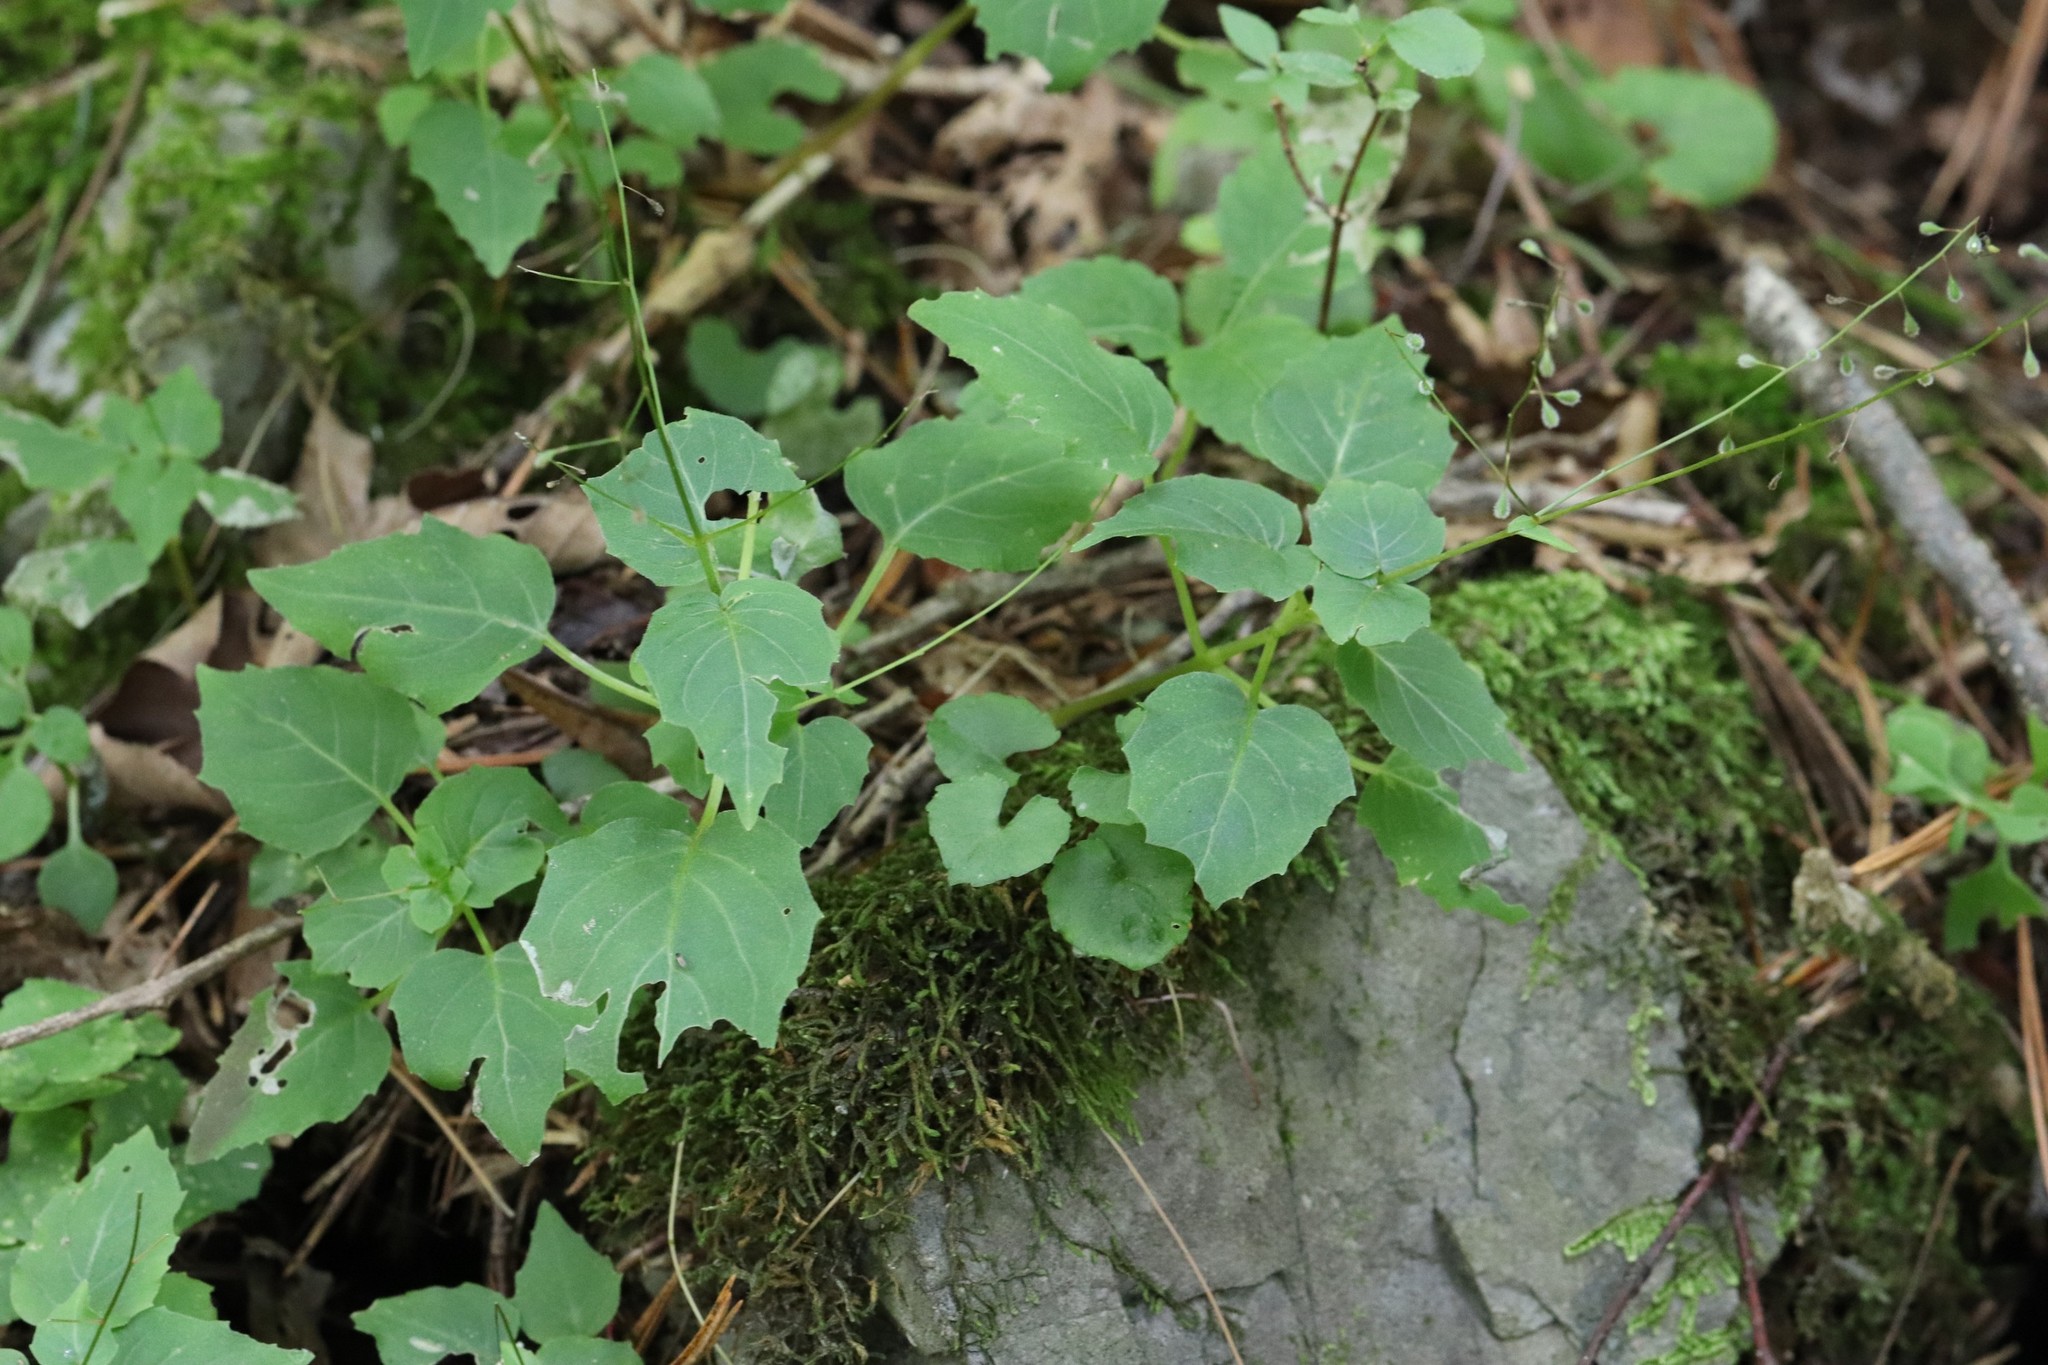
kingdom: Plantae
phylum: Tracheophyta
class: Magnoliopsida
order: Myrtales
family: Onagraceae
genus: Circaea
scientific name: Circaea alpina
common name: Alpine enchanter's-nightshade
